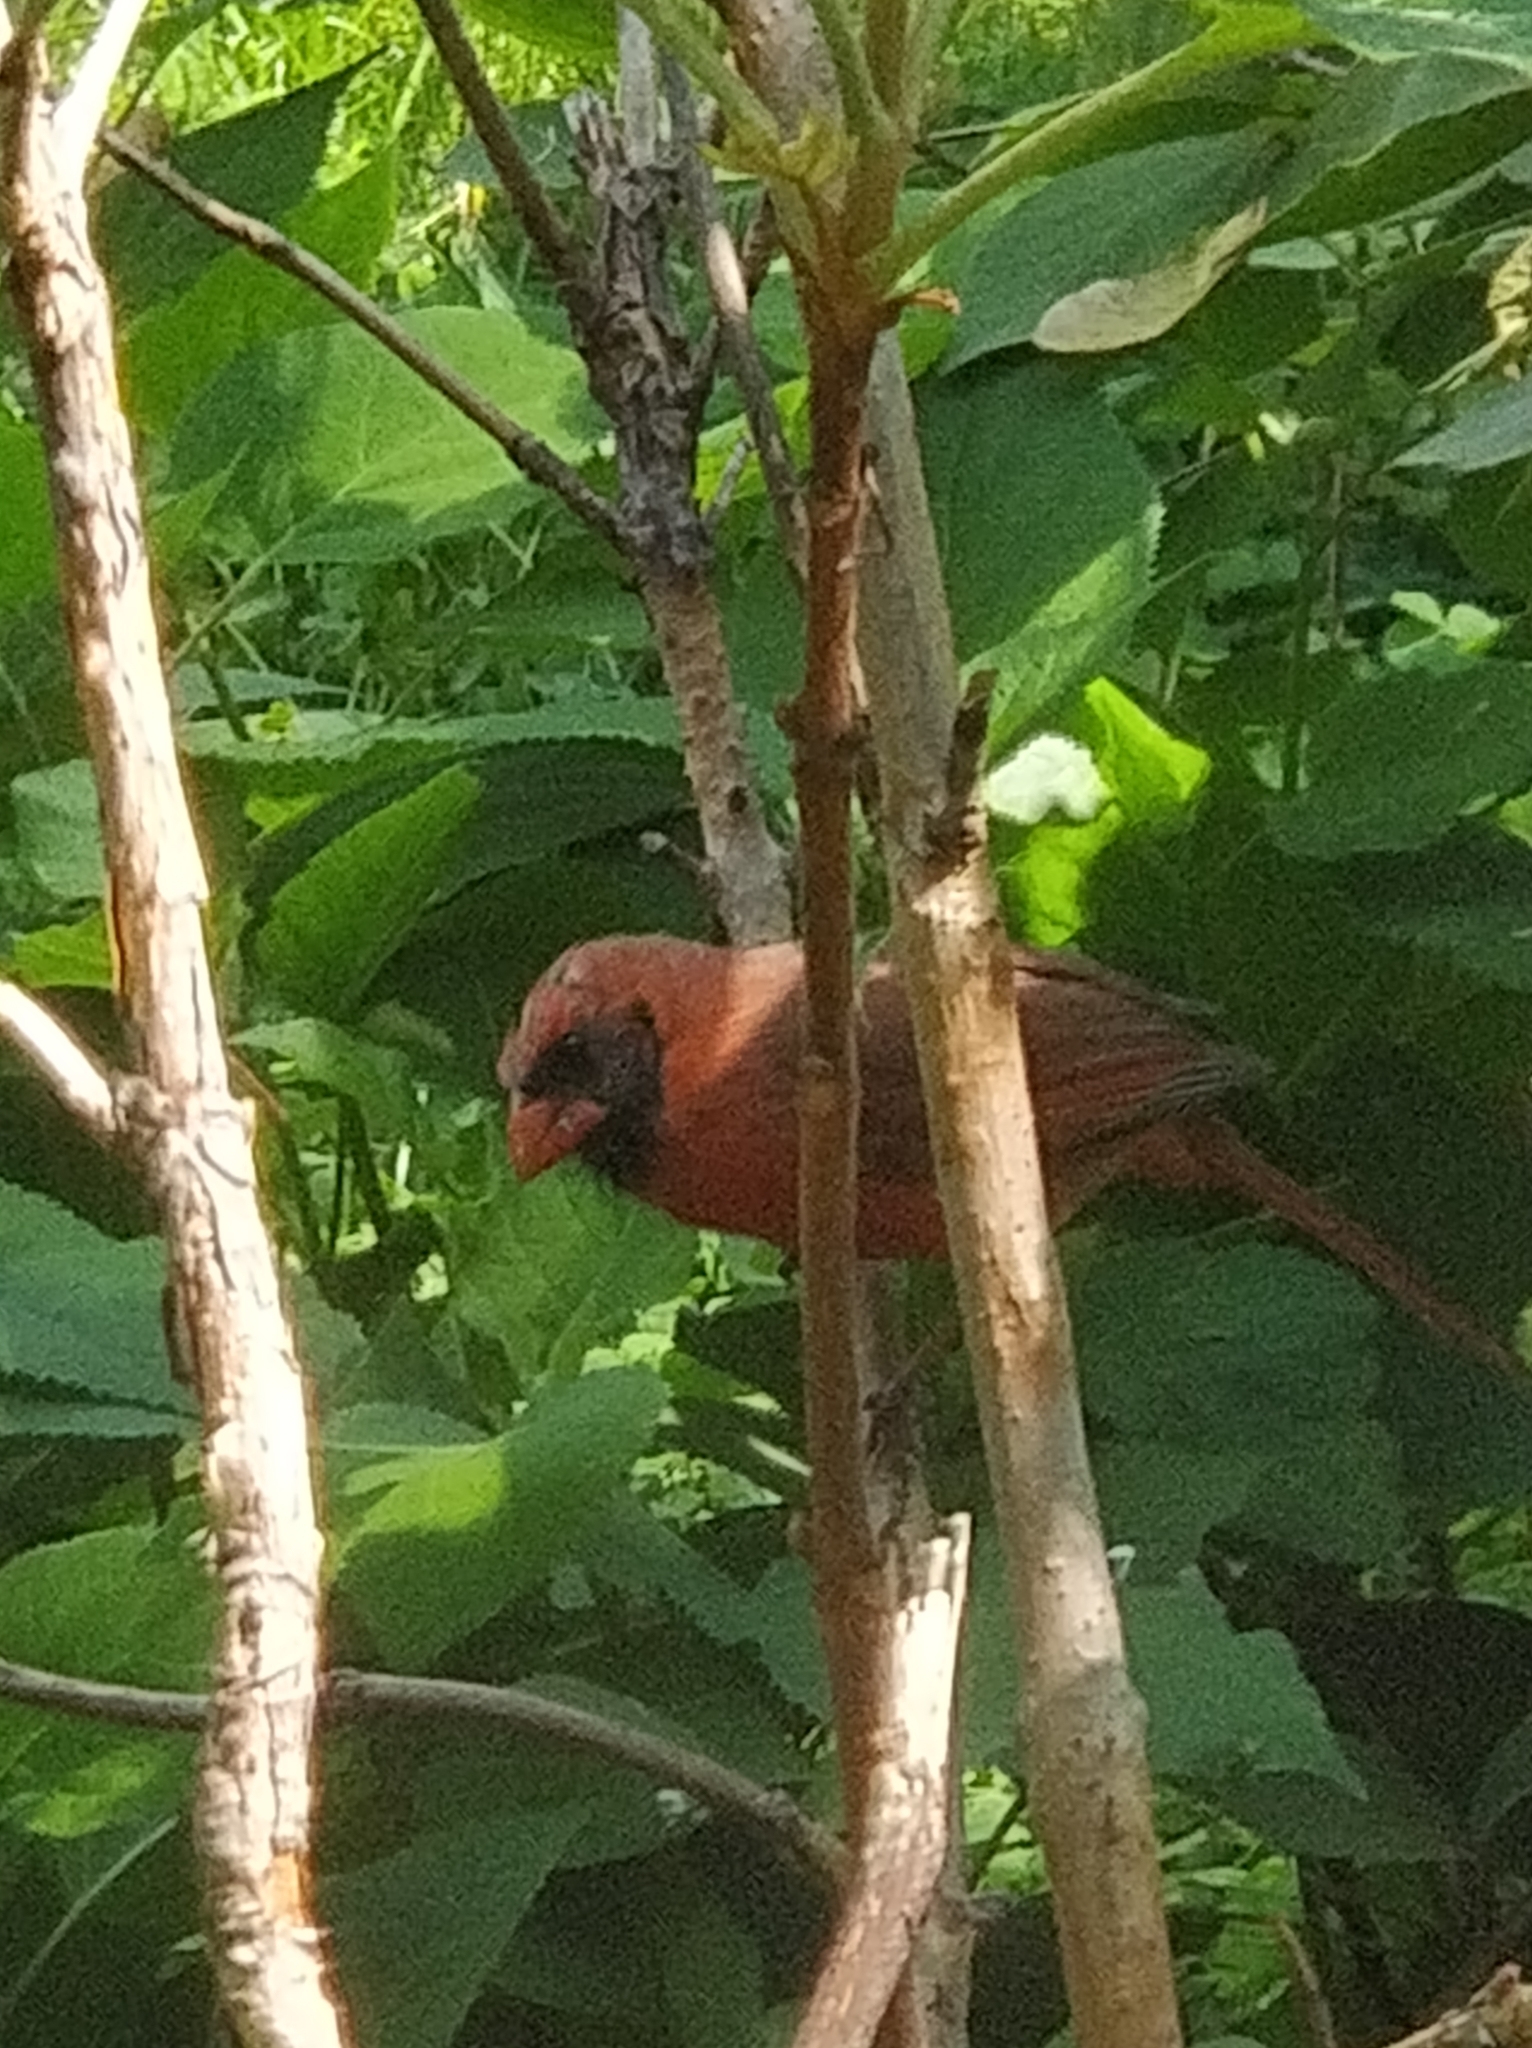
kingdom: Animalia
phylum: Chordata
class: Aves
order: Passeriformes
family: Cardinalidae
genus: Cardinalis
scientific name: Cardinalis cardinalis
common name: Northern cardinal
